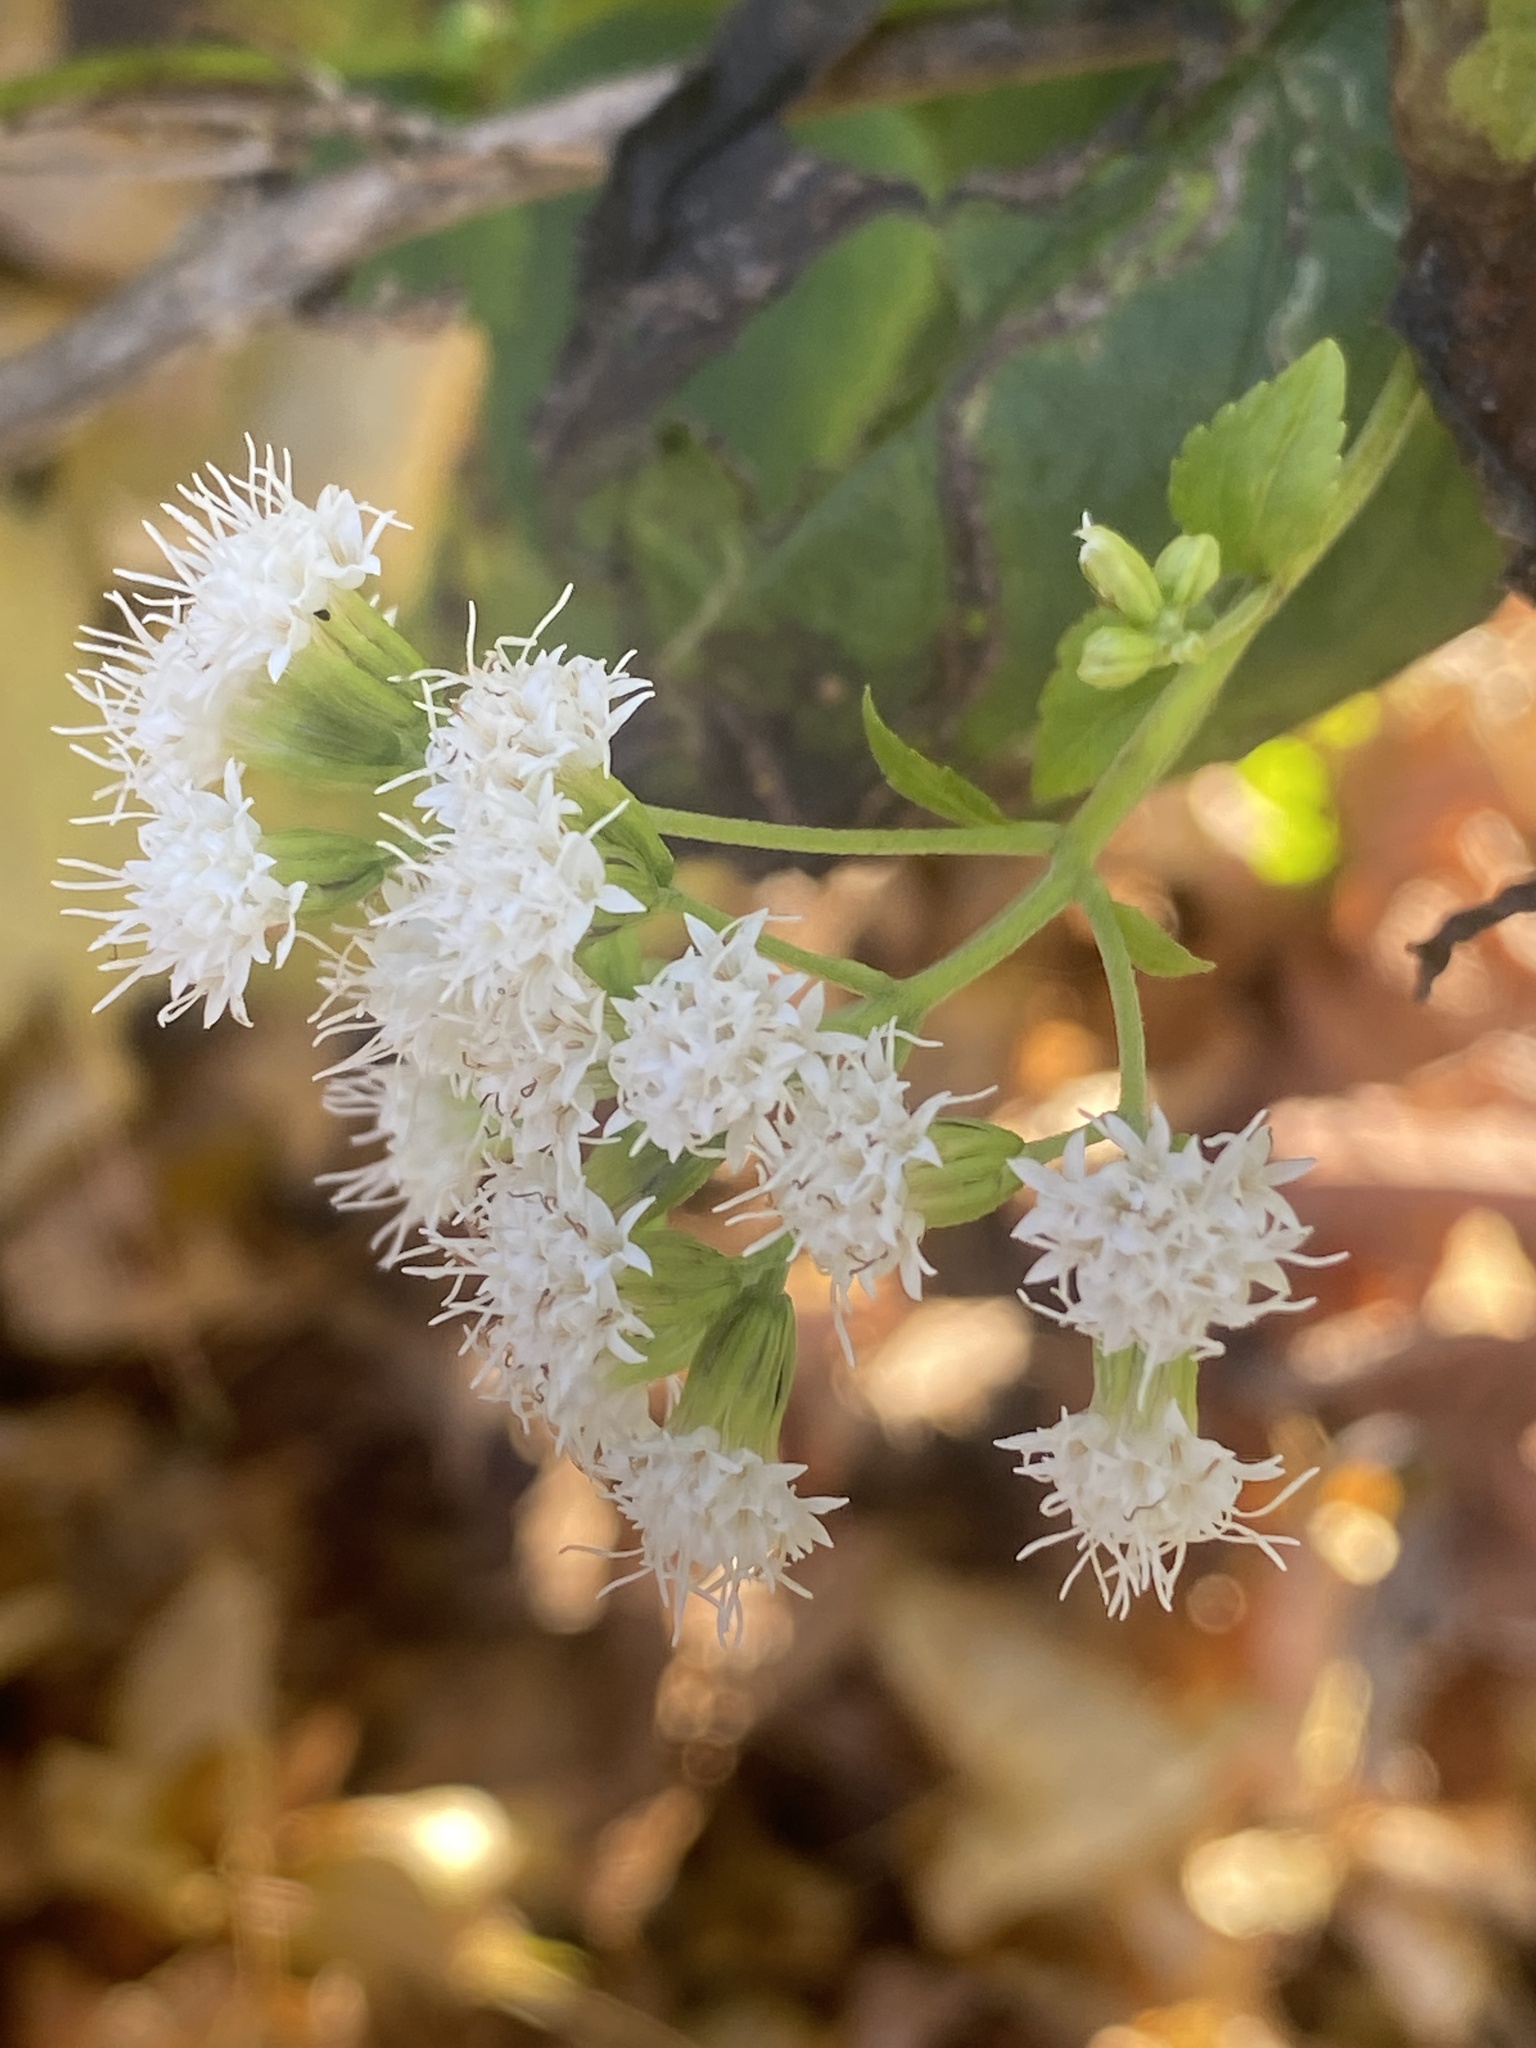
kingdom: Plantae
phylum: Tracheophyta
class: Magnoliopsida
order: Asterales
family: Asteraceae
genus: Ageratina
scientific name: Ageratina altissima
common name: White snakeroot
